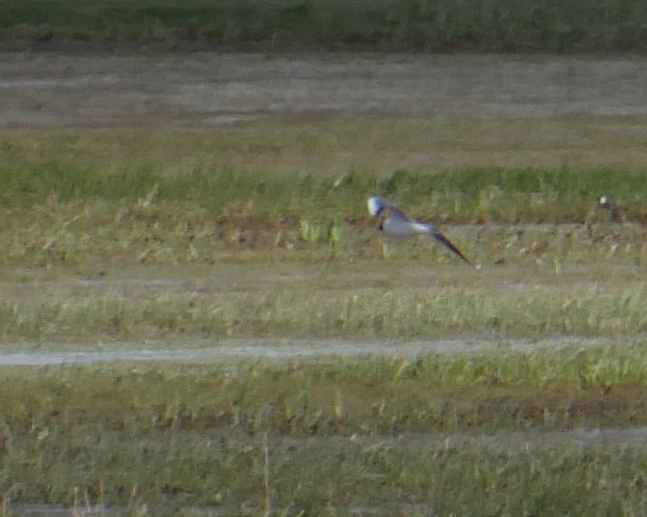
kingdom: Animalia
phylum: Chordata
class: Aves
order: Charadriiformes
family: Laridae
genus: Chroicocephalus
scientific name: Chroicocephalus ridibundus
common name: Black-headed gull
